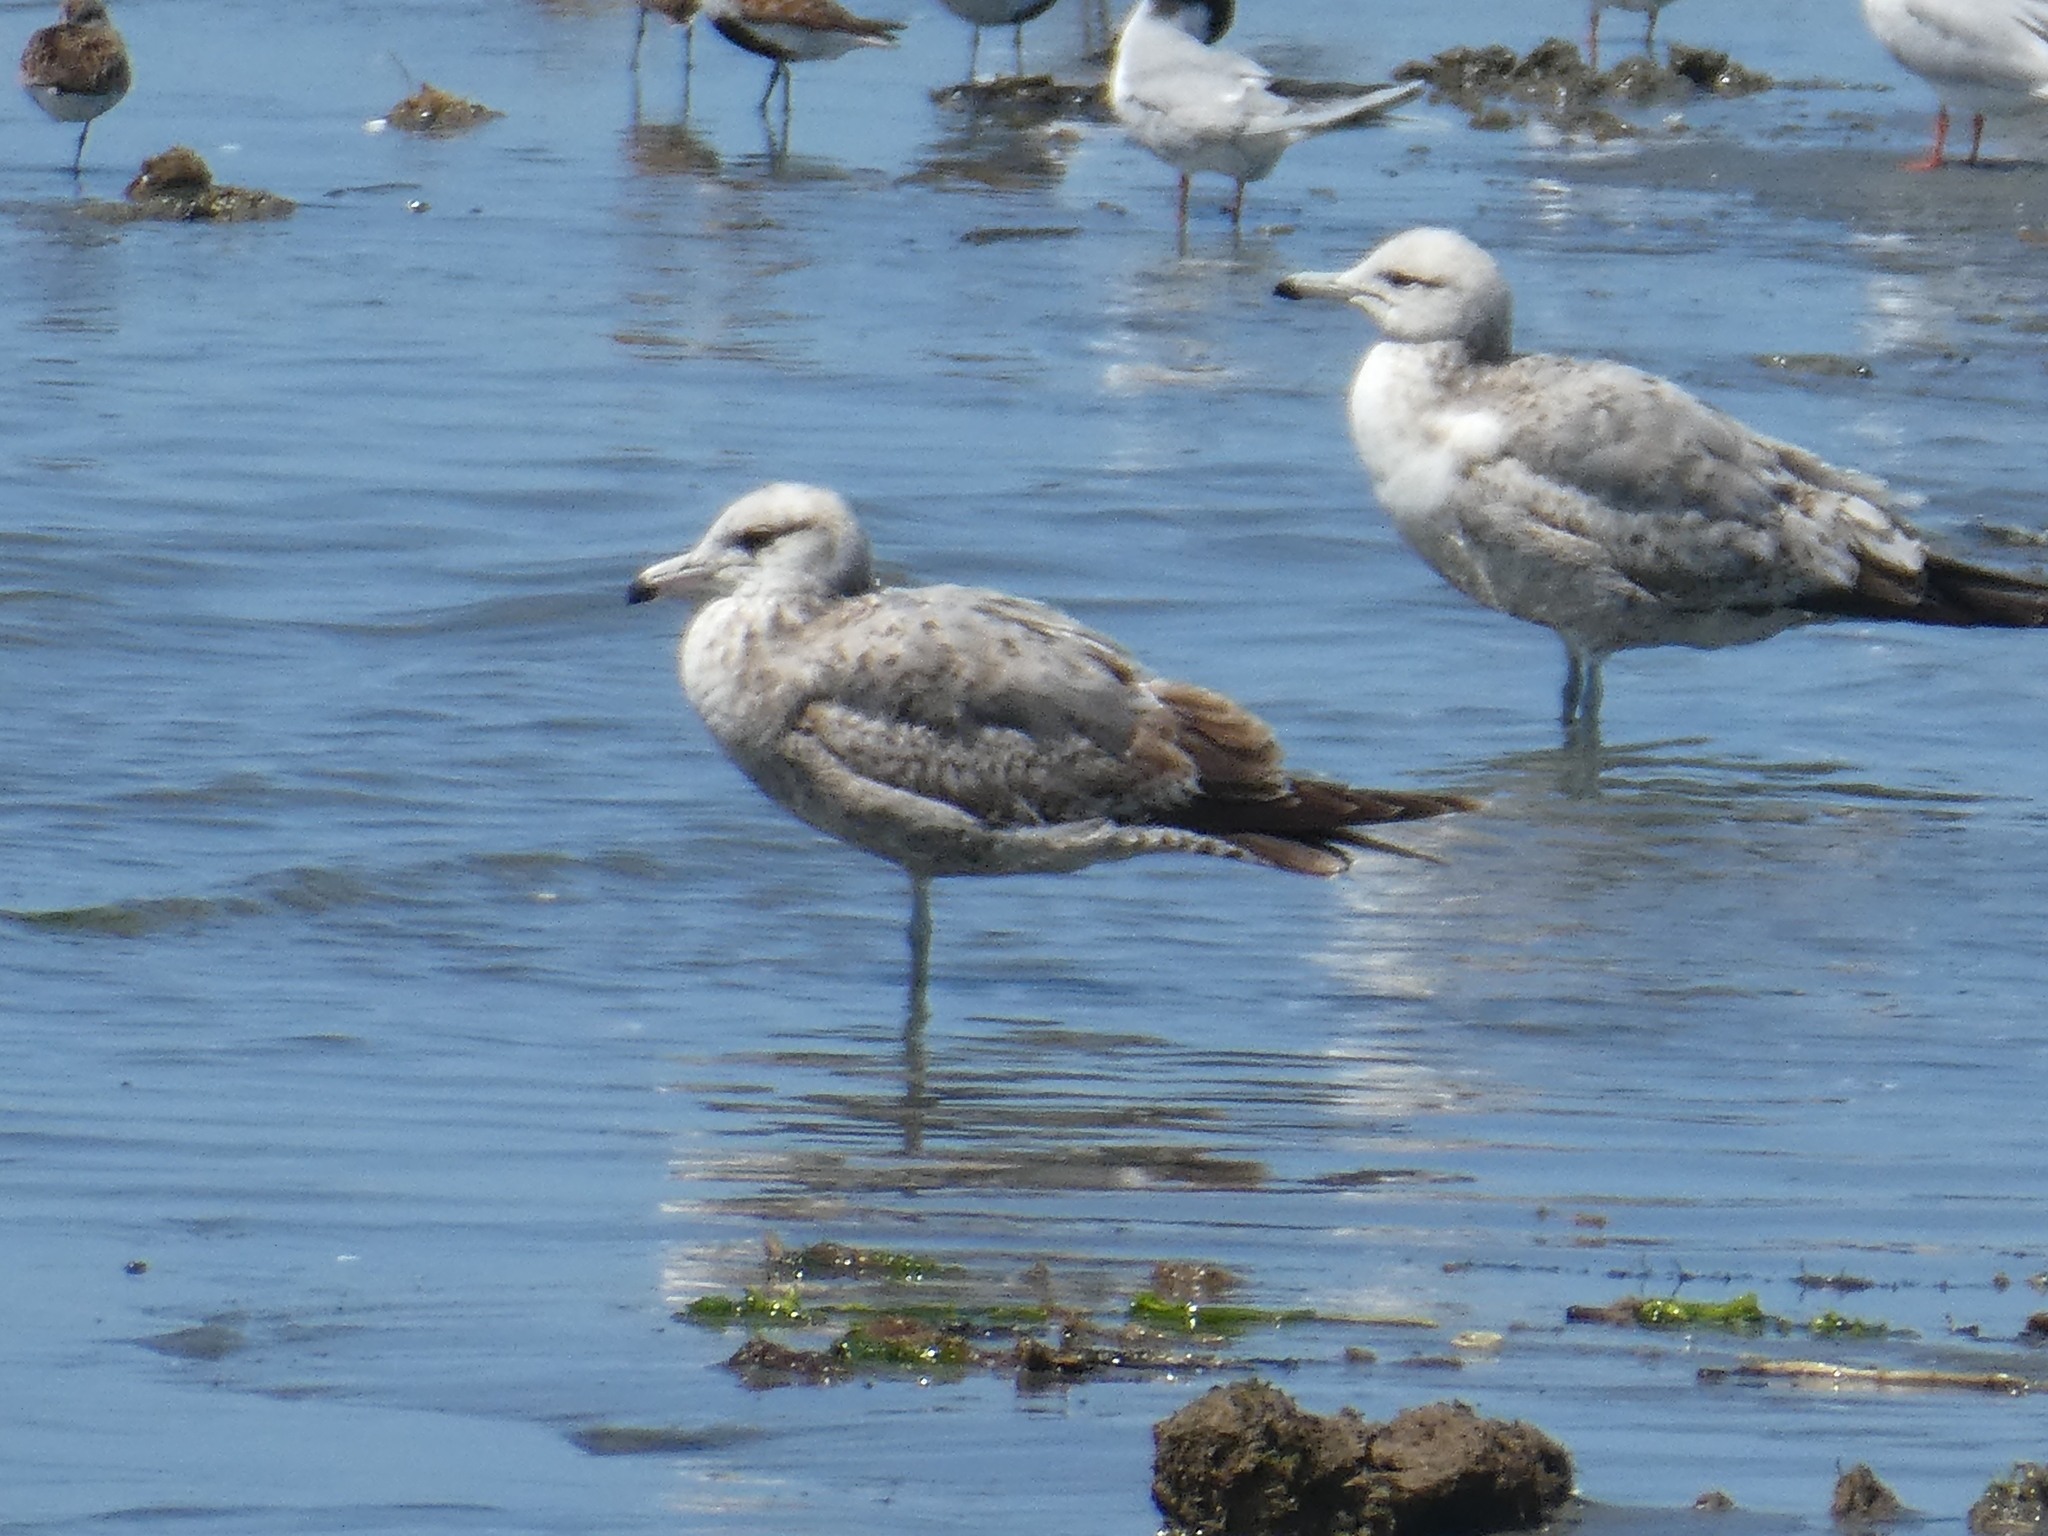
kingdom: Animalia
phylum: Chordata
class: Aves
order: Charadriiformes
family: Laridae
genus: Larus
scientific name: Larus californicus
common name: California gull
